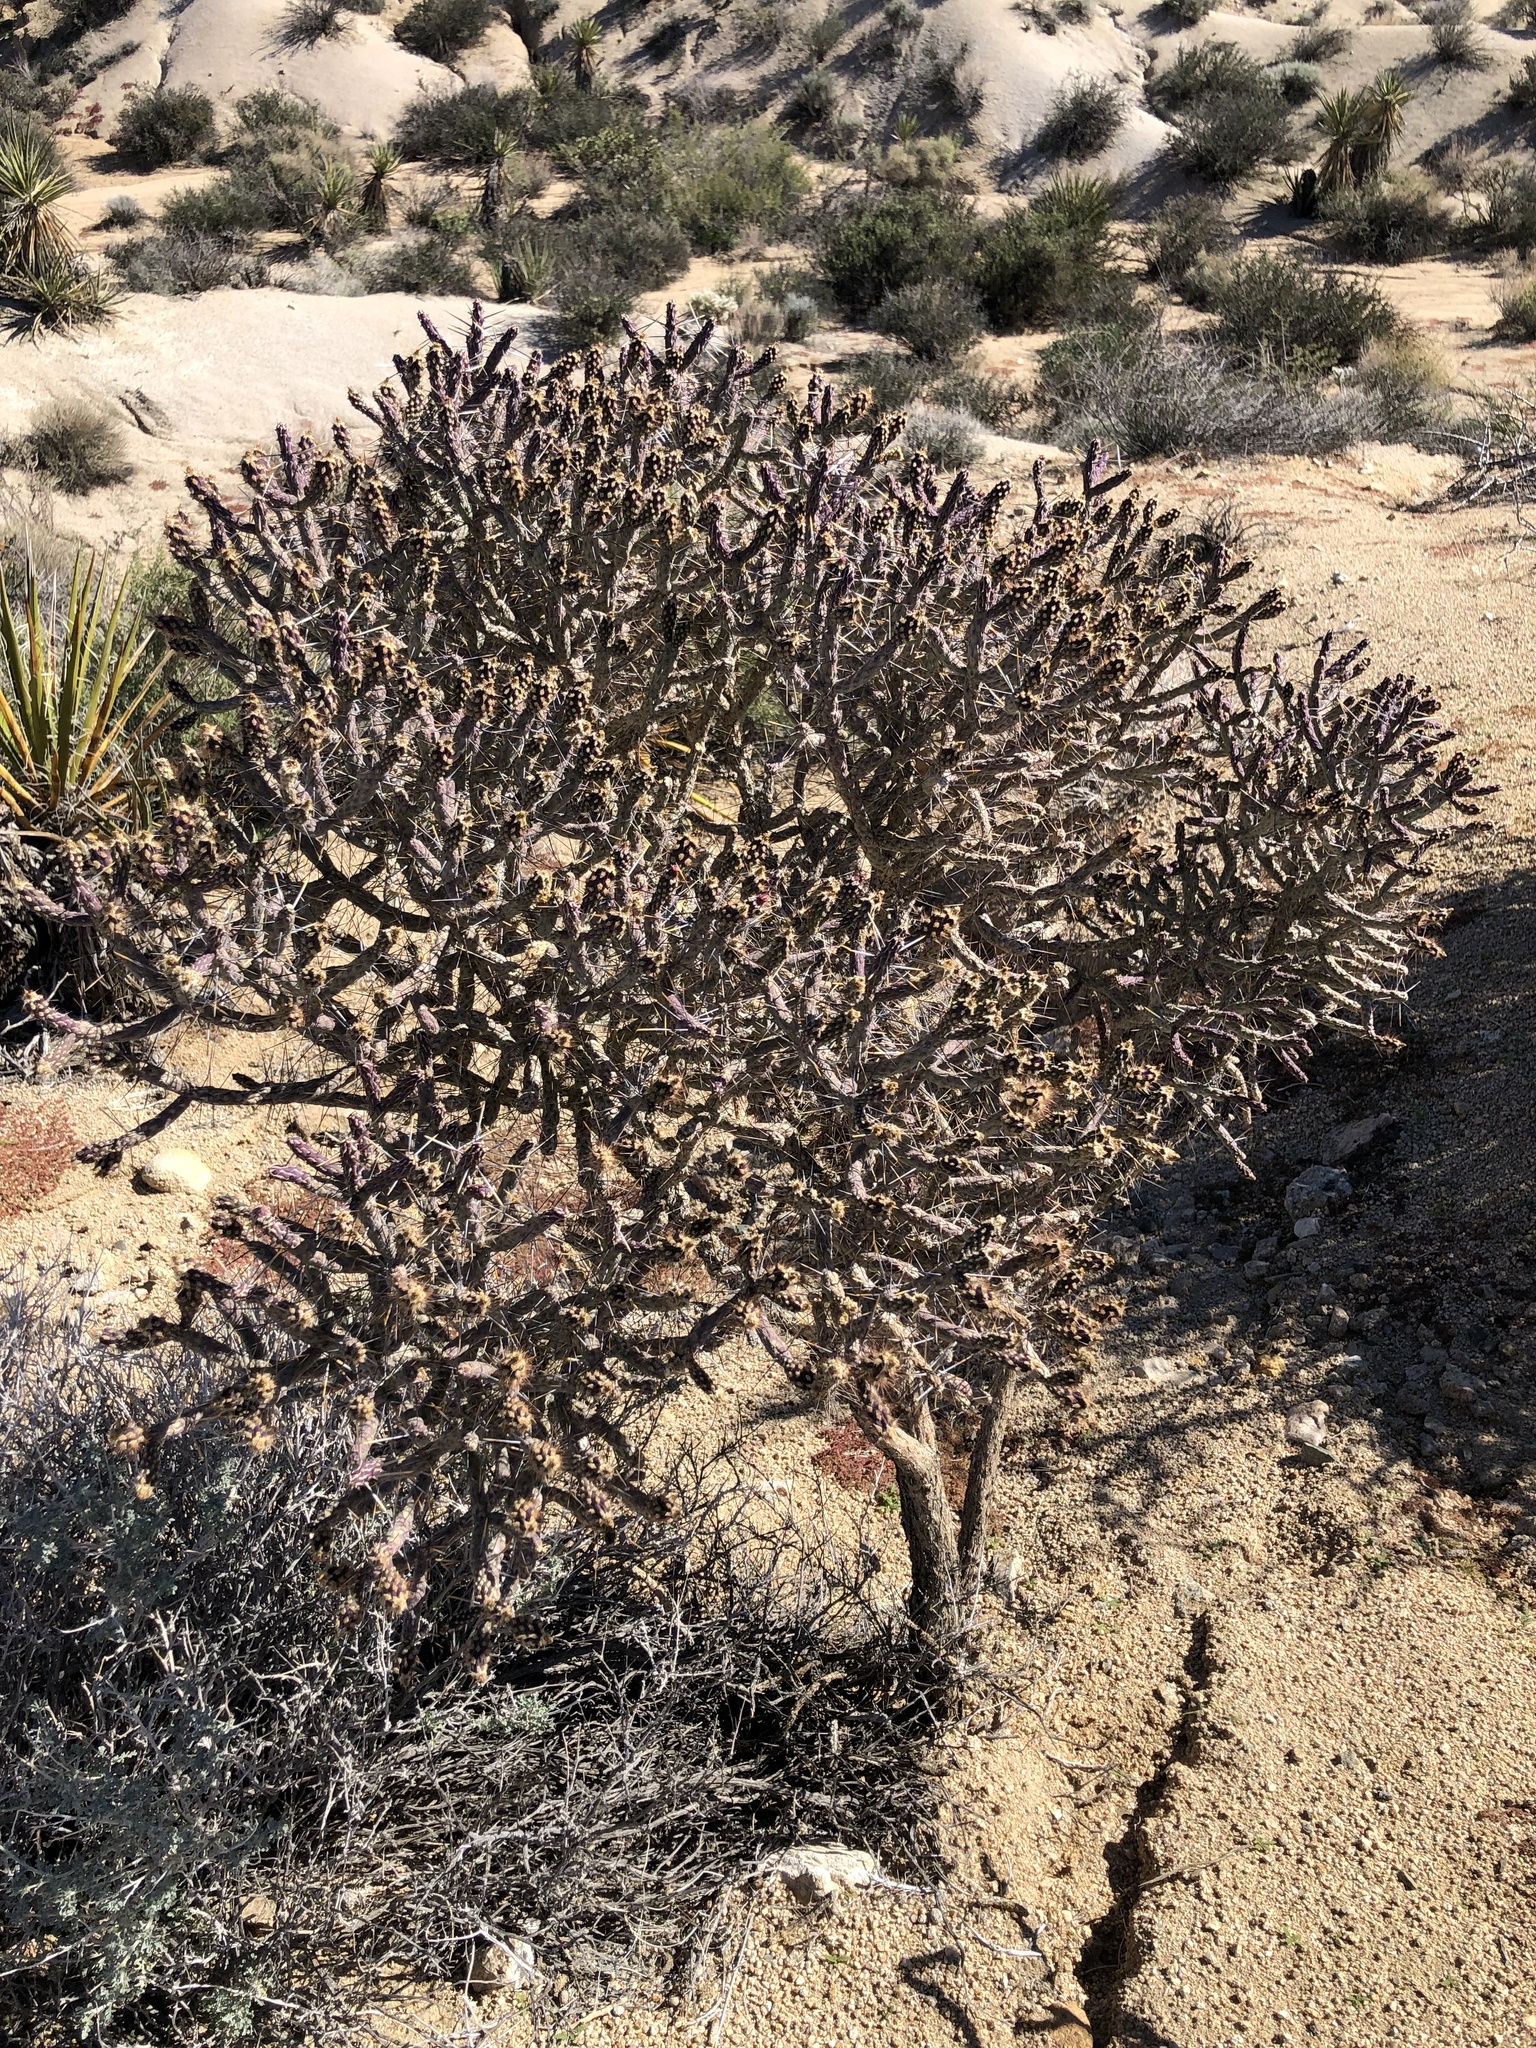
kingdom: Plantae
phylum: Tracheophyta
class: Magnoliopsida
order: Caryophyllales
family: Cactaceae
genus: Cylindropuntia
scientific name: Cylindropuntia ramosissima
